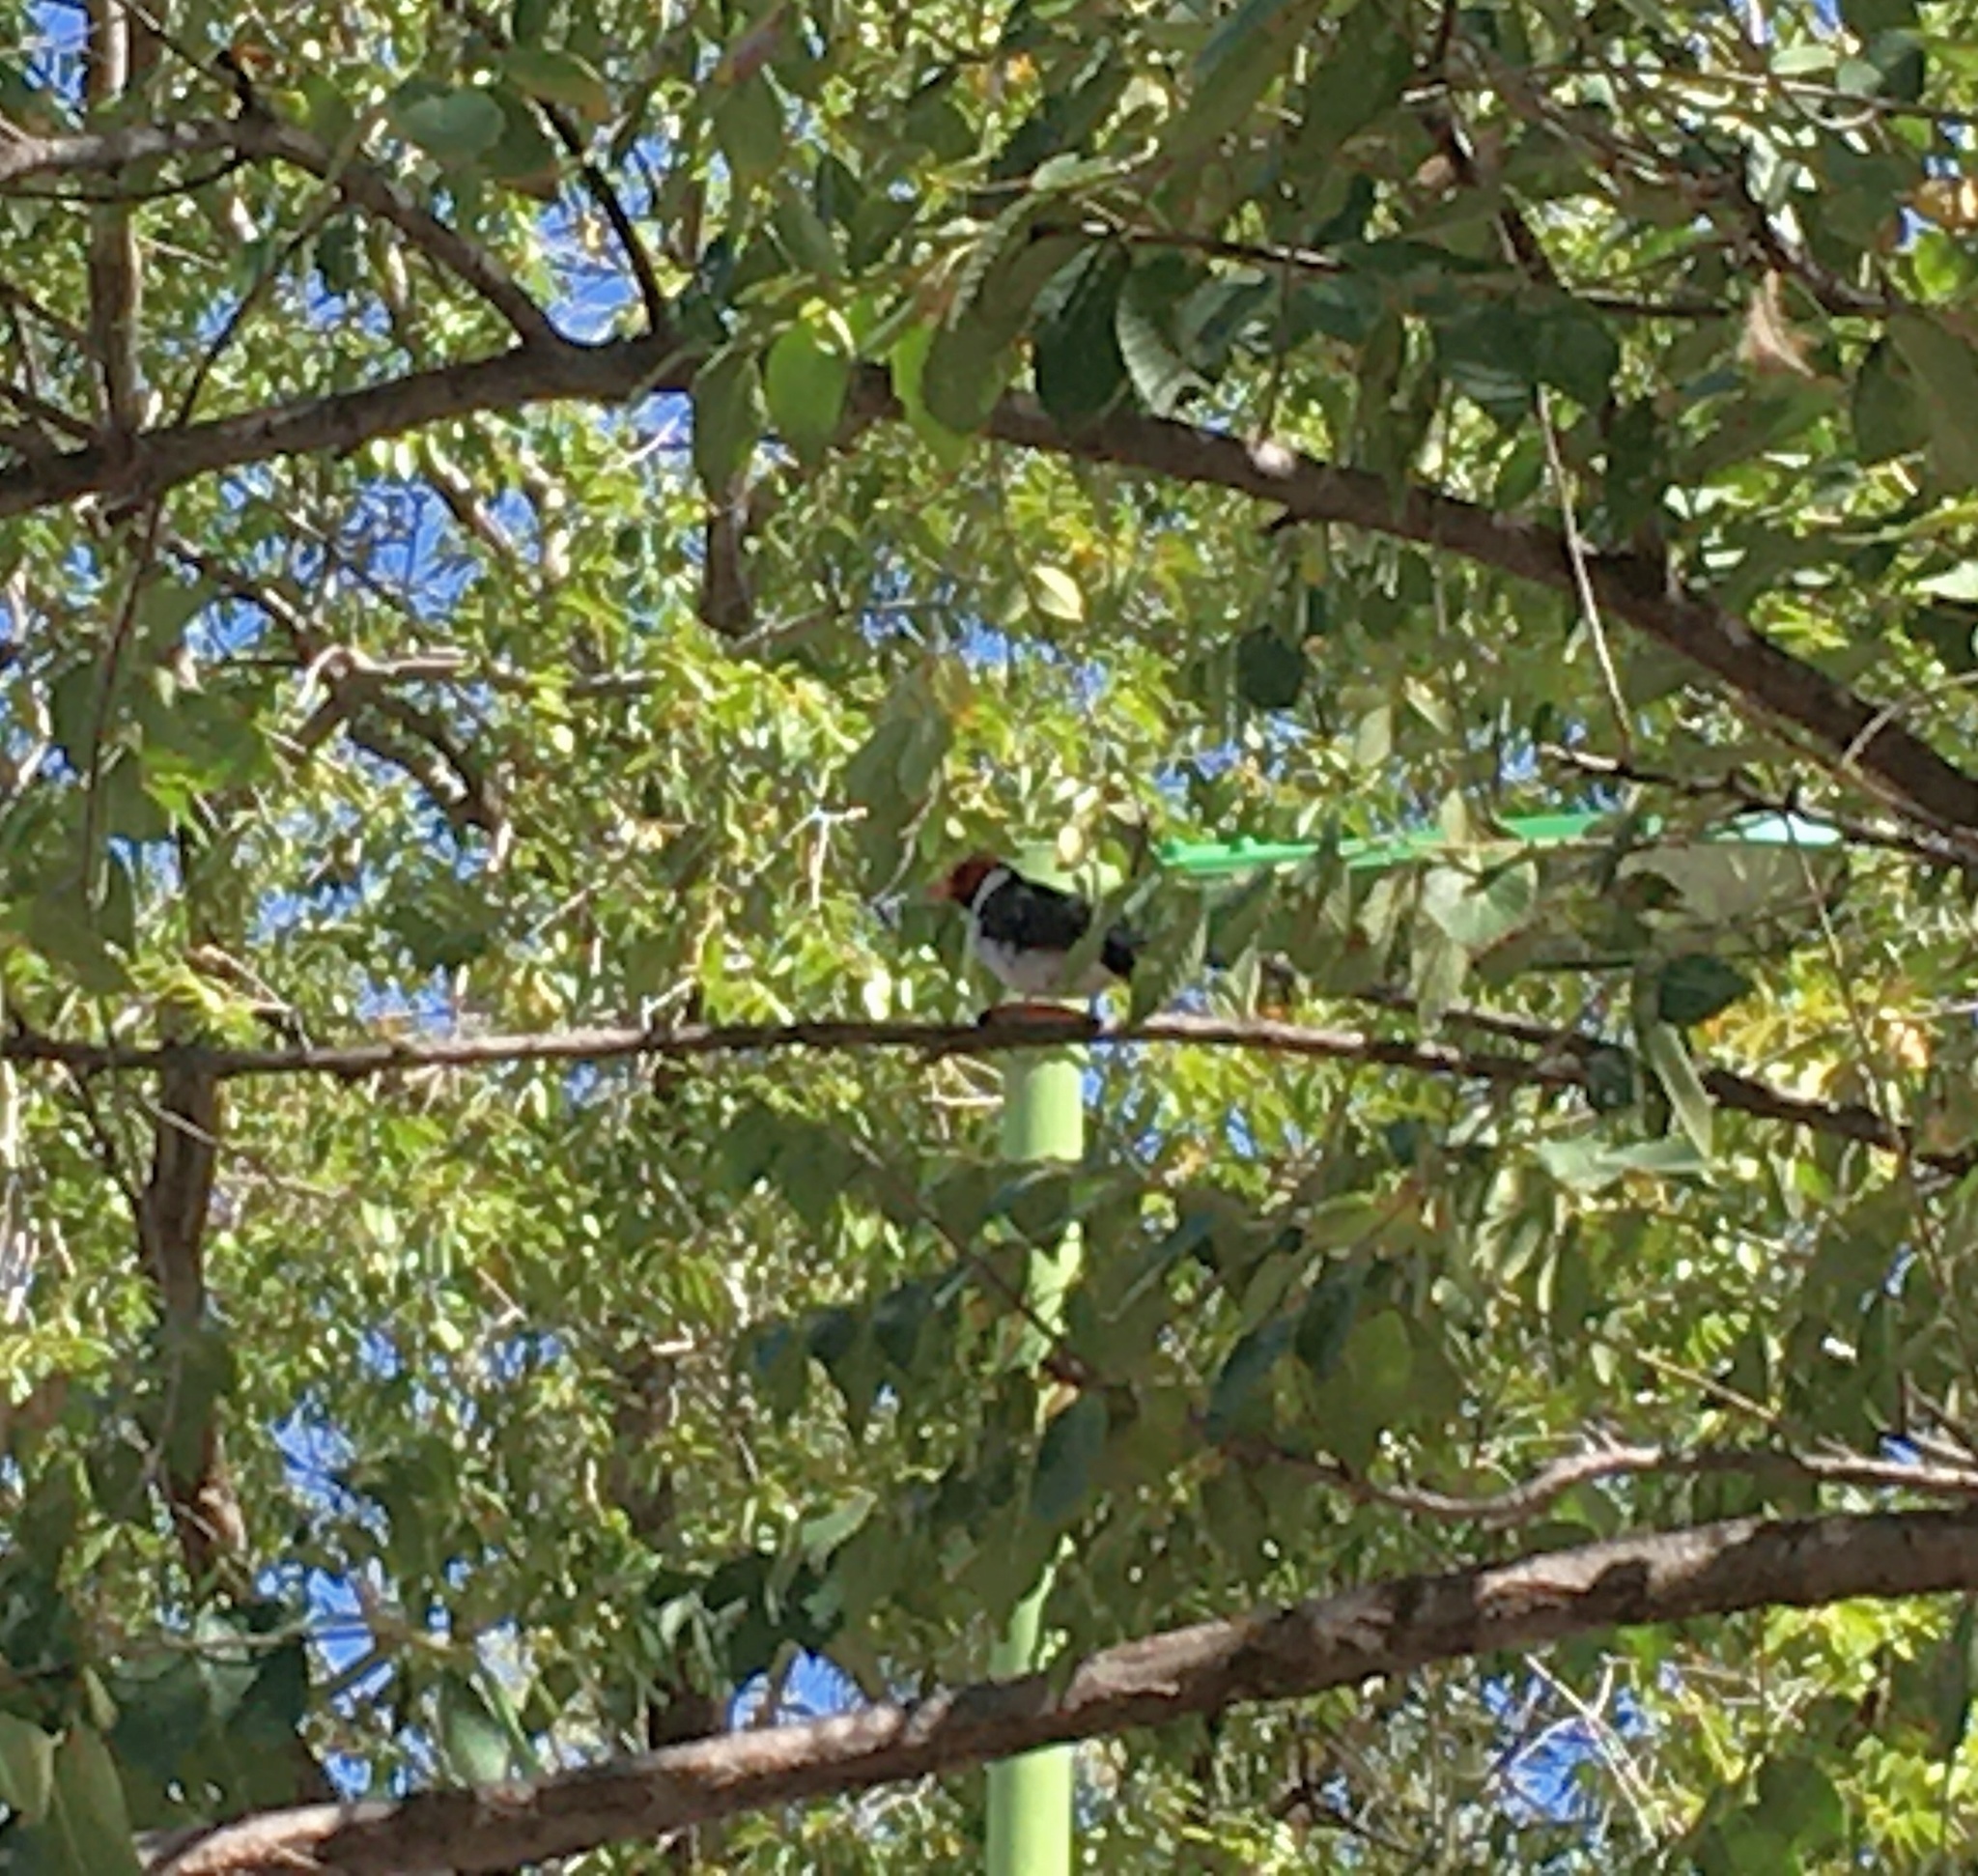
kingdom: Animalia
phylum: Chordata
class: Aves
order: Passeriformes
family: Thraupidae
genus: Paroaria
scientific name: Paroaria capitata
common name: Yellow-billed cardinal
